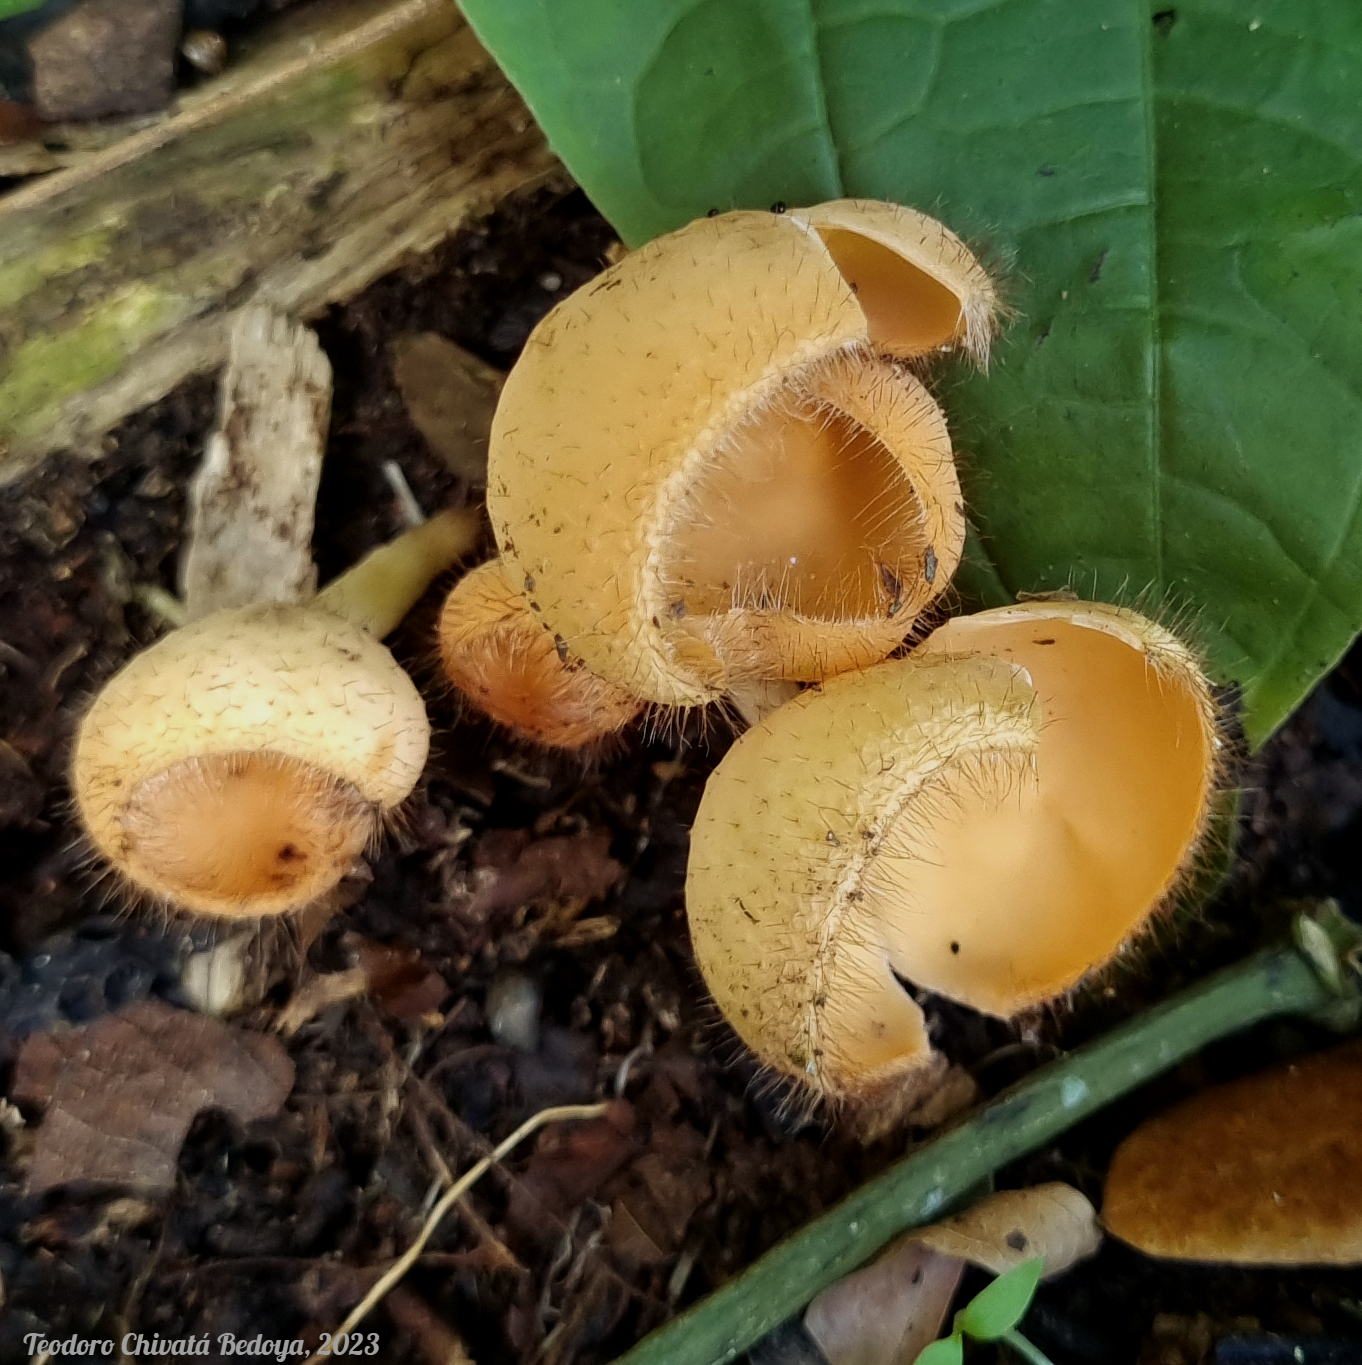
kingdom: Fungi
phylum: Ascomycota
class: Pezizomycetes
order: Pezizales
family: Sarcoscyphaceae
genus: Cookeina
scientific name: Cookeina tricholoma
